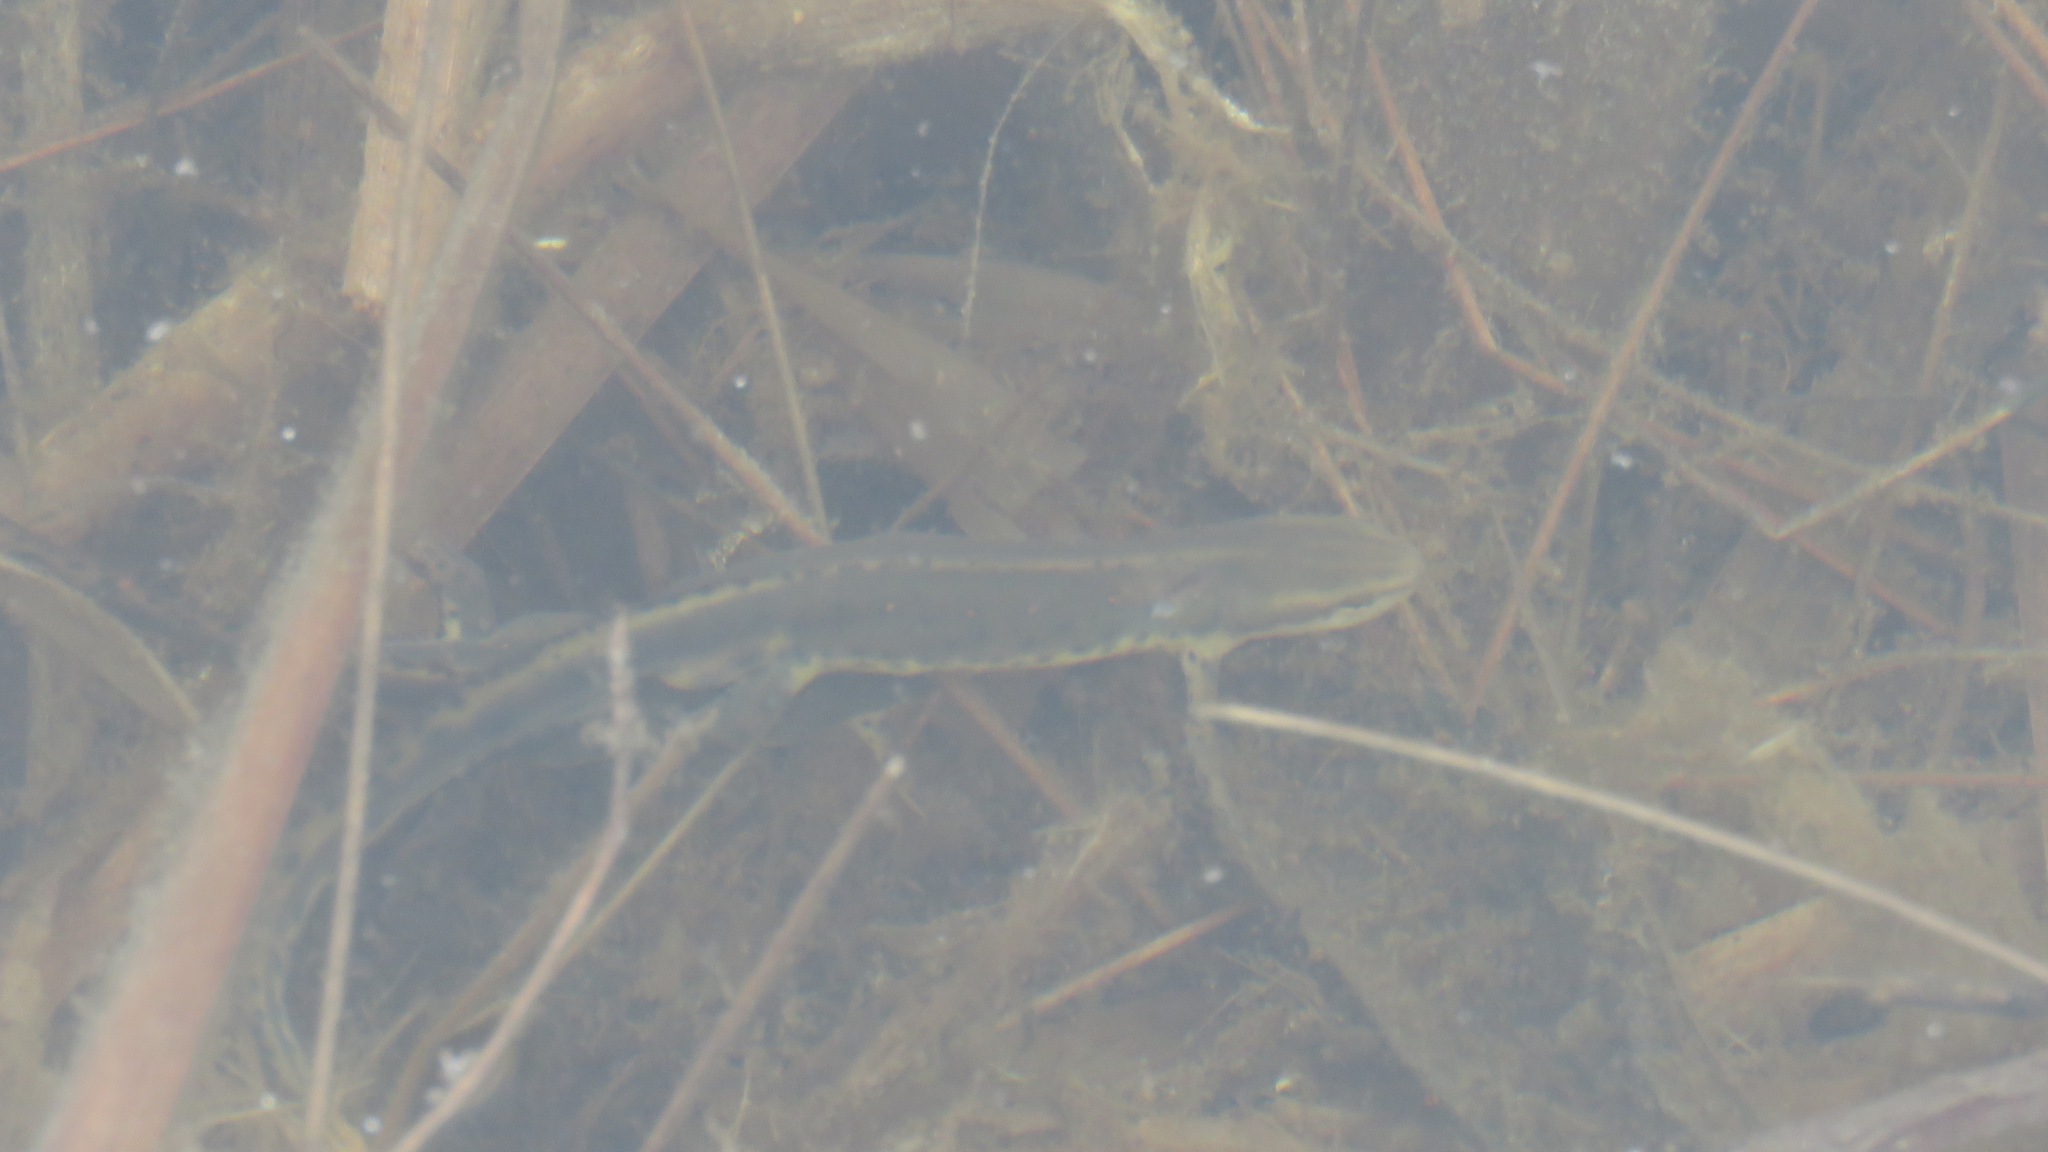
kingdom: Animalia
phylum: Chordata
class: Amphibia
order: Caudata
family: Salamandridae
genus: Notophthalmus
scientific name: Notophthalmus viridescens
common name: Eastern newt
